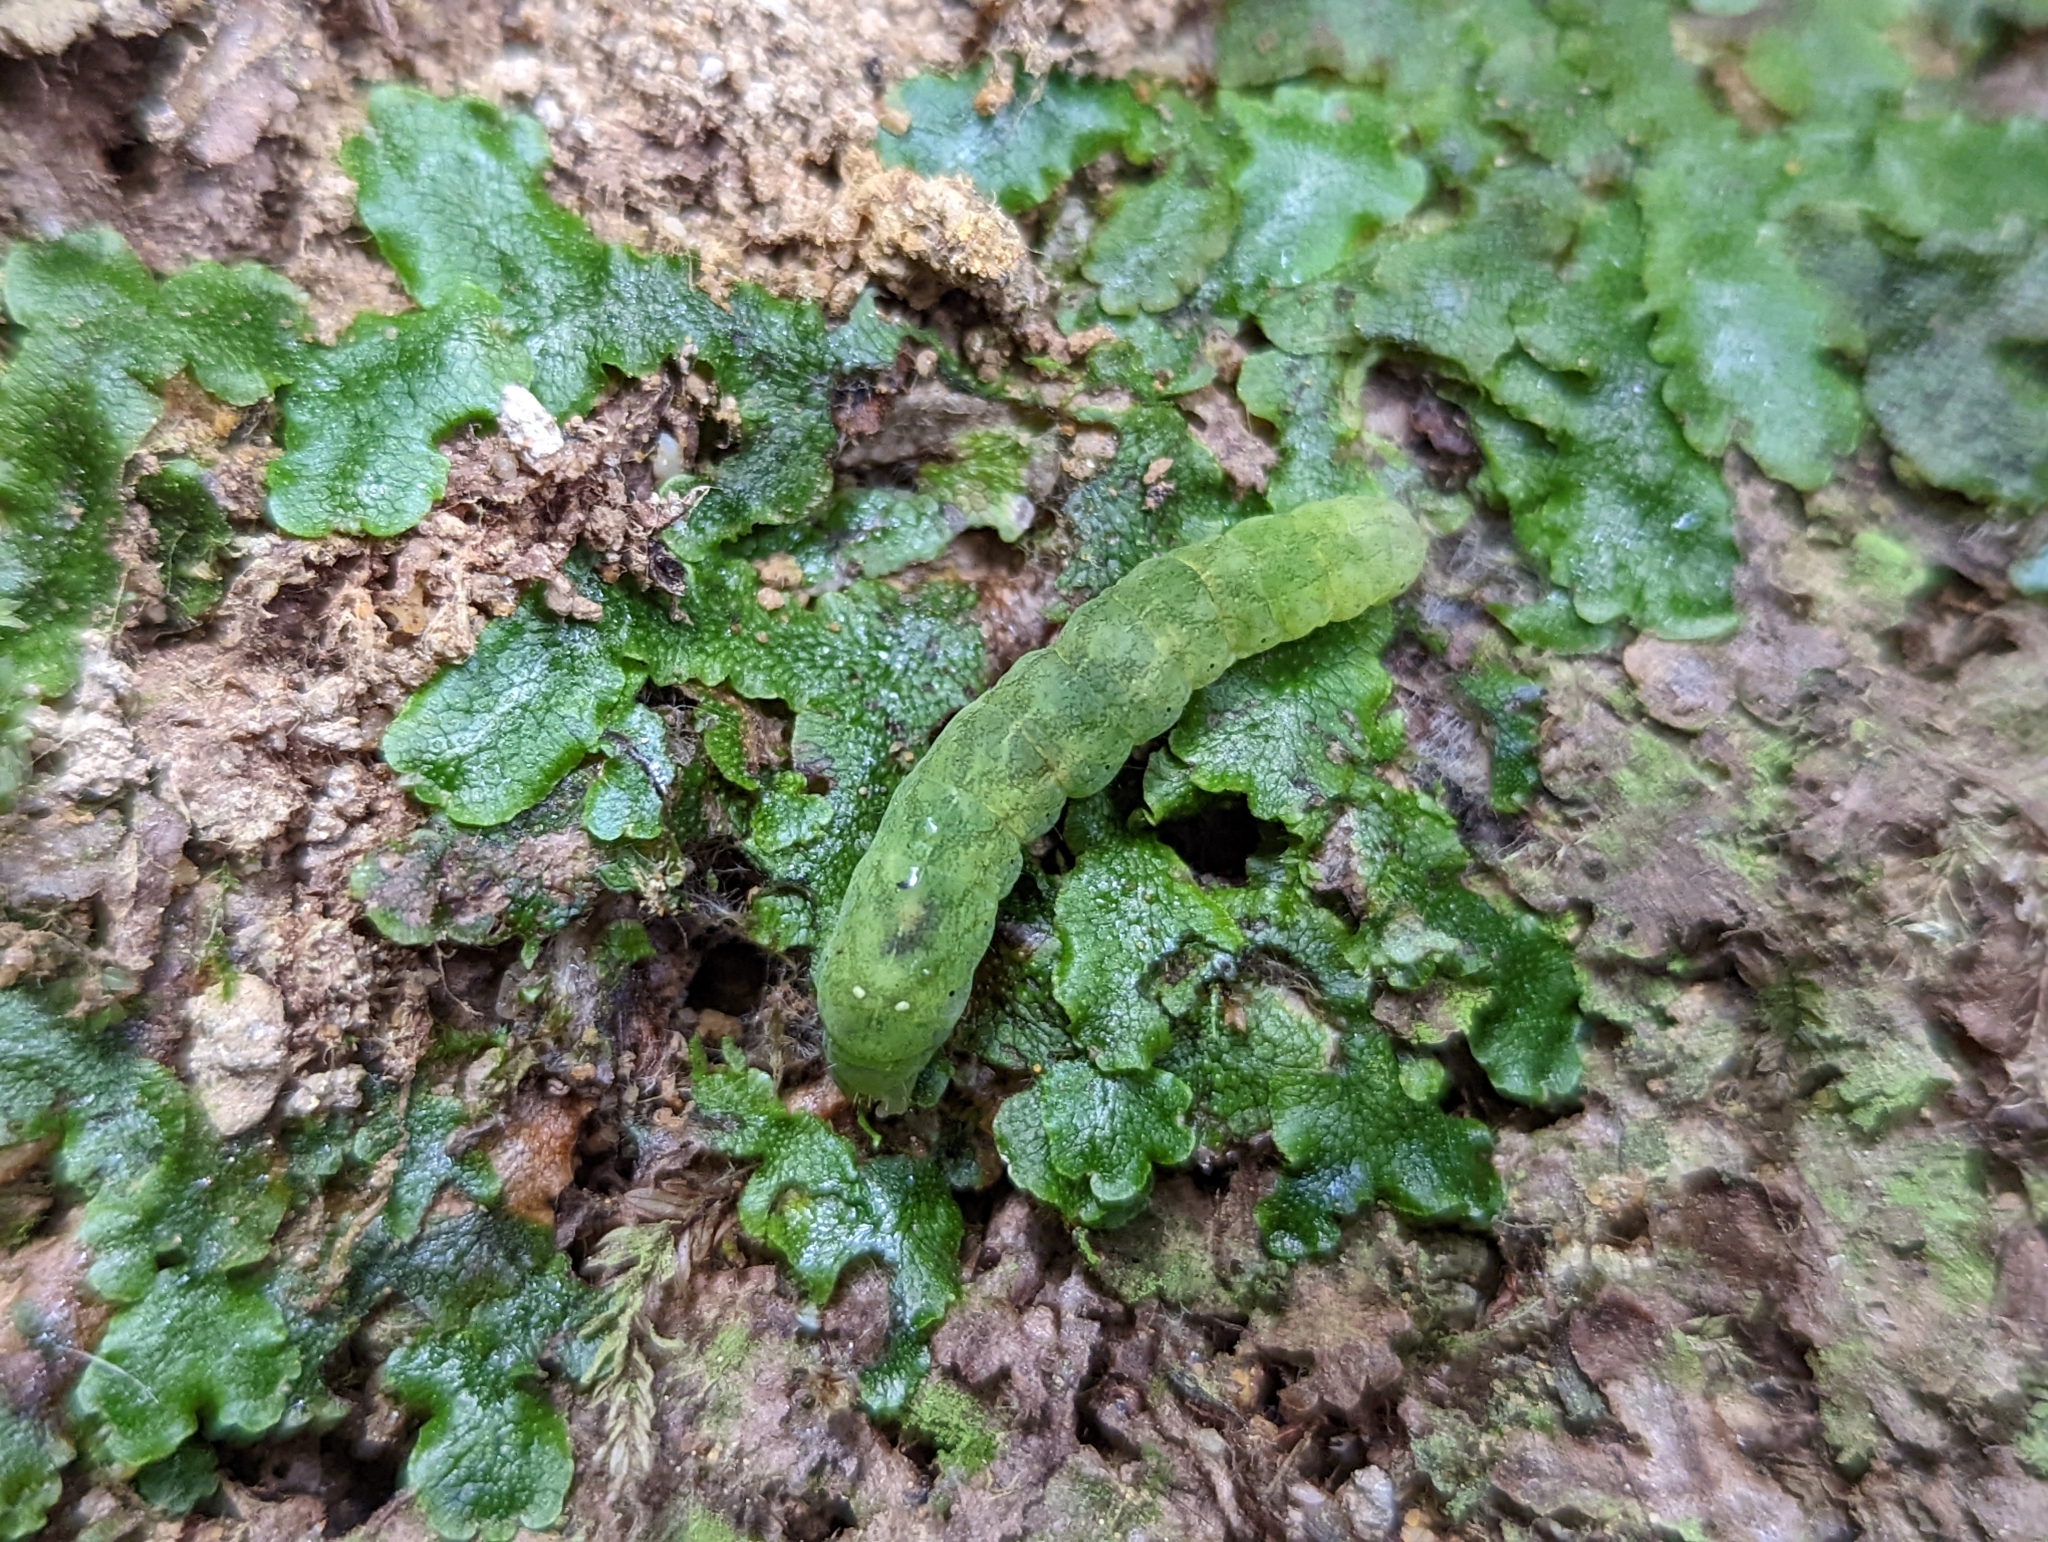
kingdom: Animalia
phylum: Arthropoda
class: Insecta
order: Lepidoptera
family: Noctuidae
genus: Euplexia
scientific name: Euplexia benesimilis
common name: American angle shades
